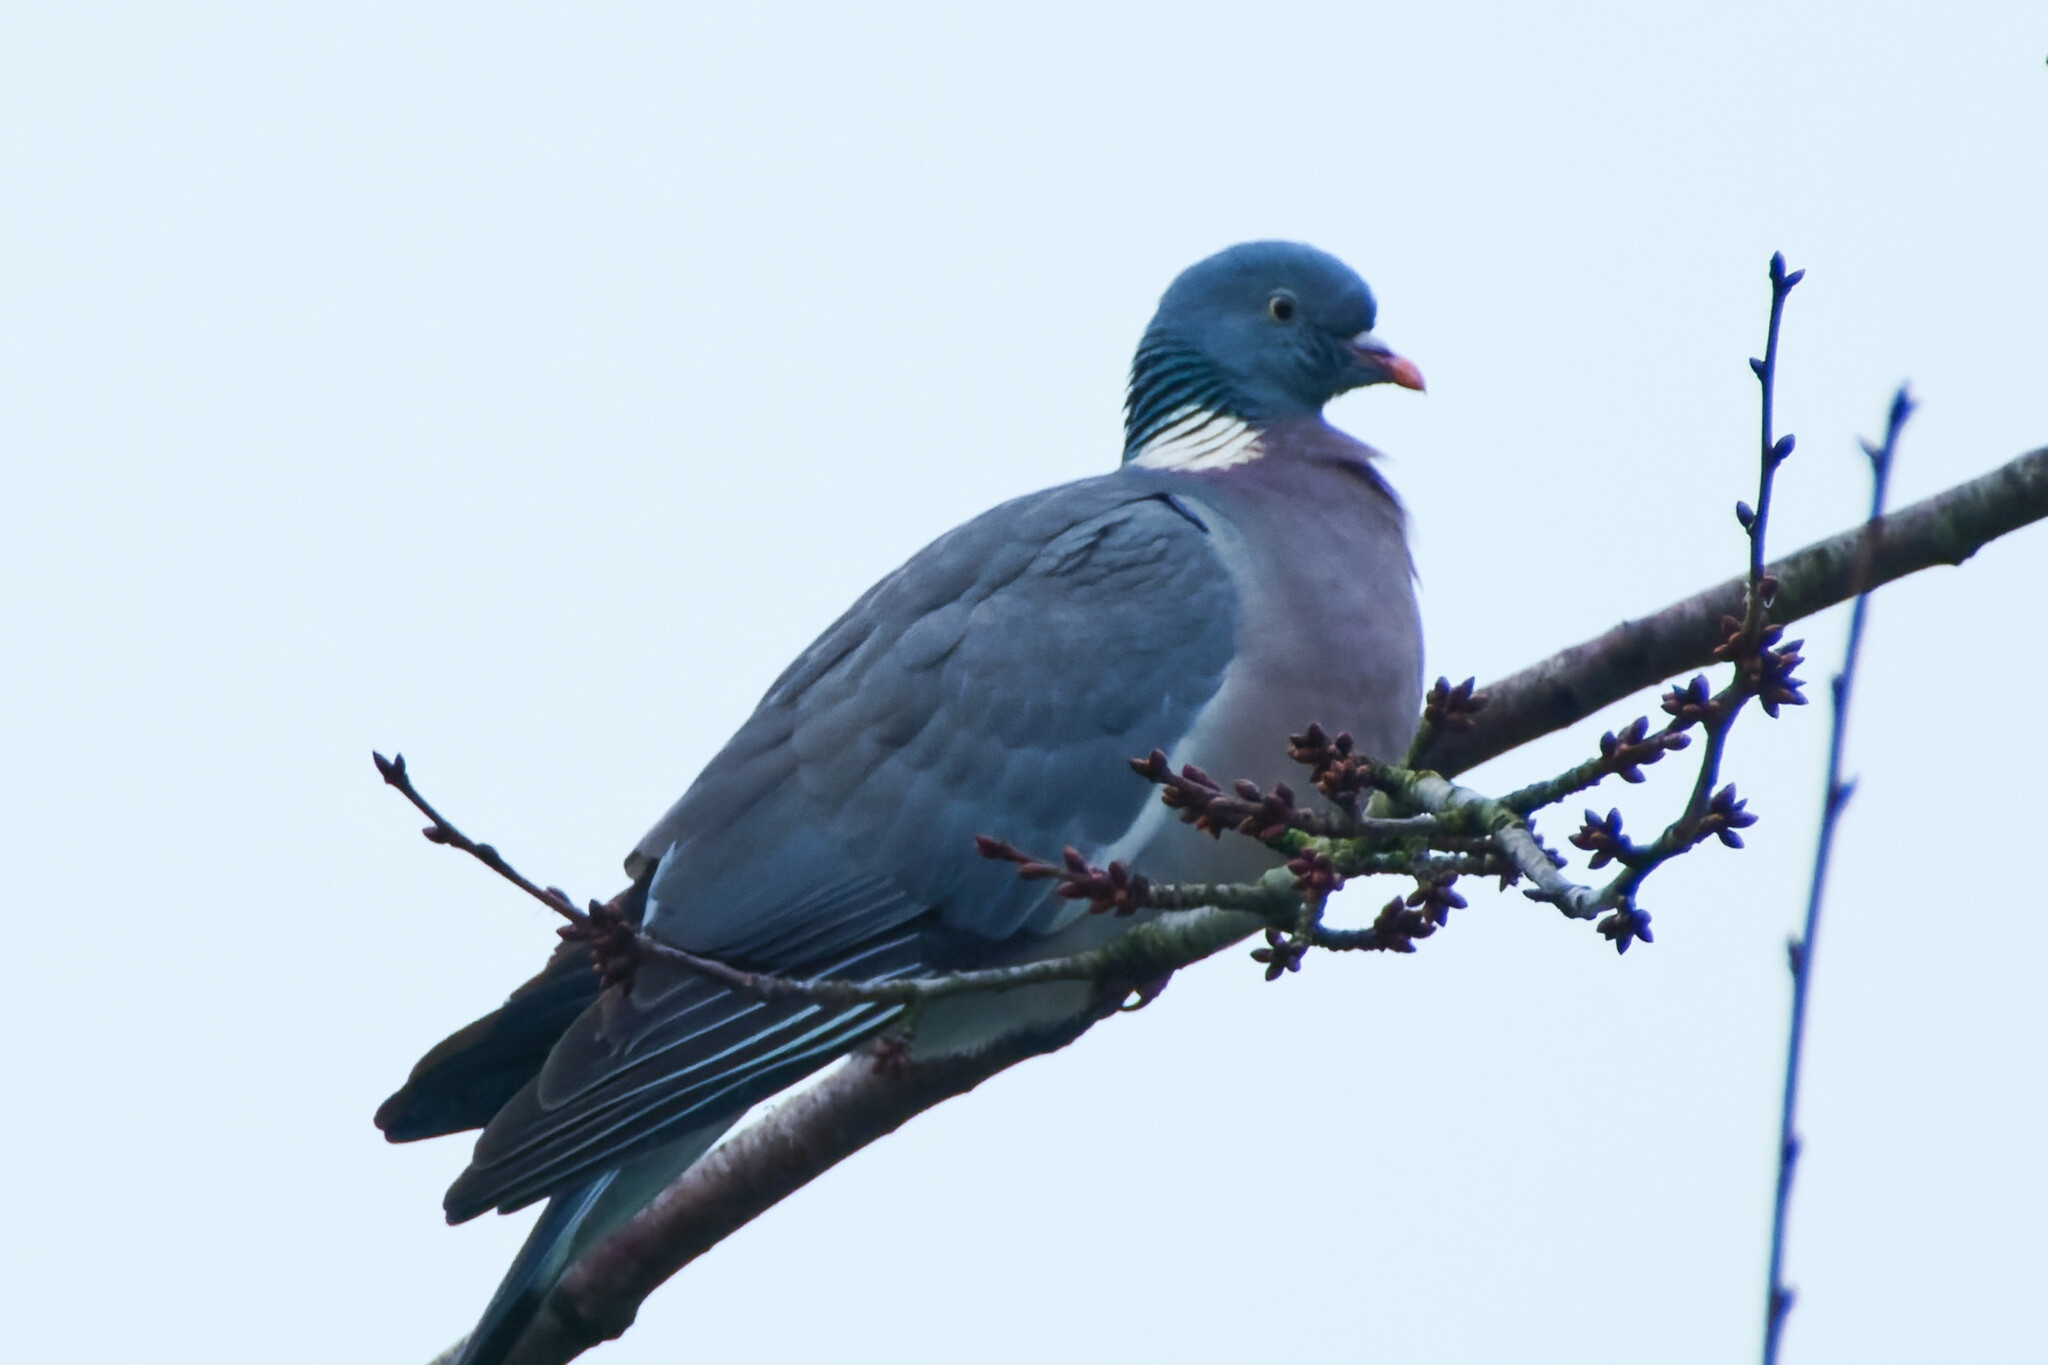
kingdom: Animalia
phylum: Chordata
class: Aves
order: Columbiformes
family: Columbidae
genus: Columba
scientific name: Columba palumbus
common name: Common wood pigeon
